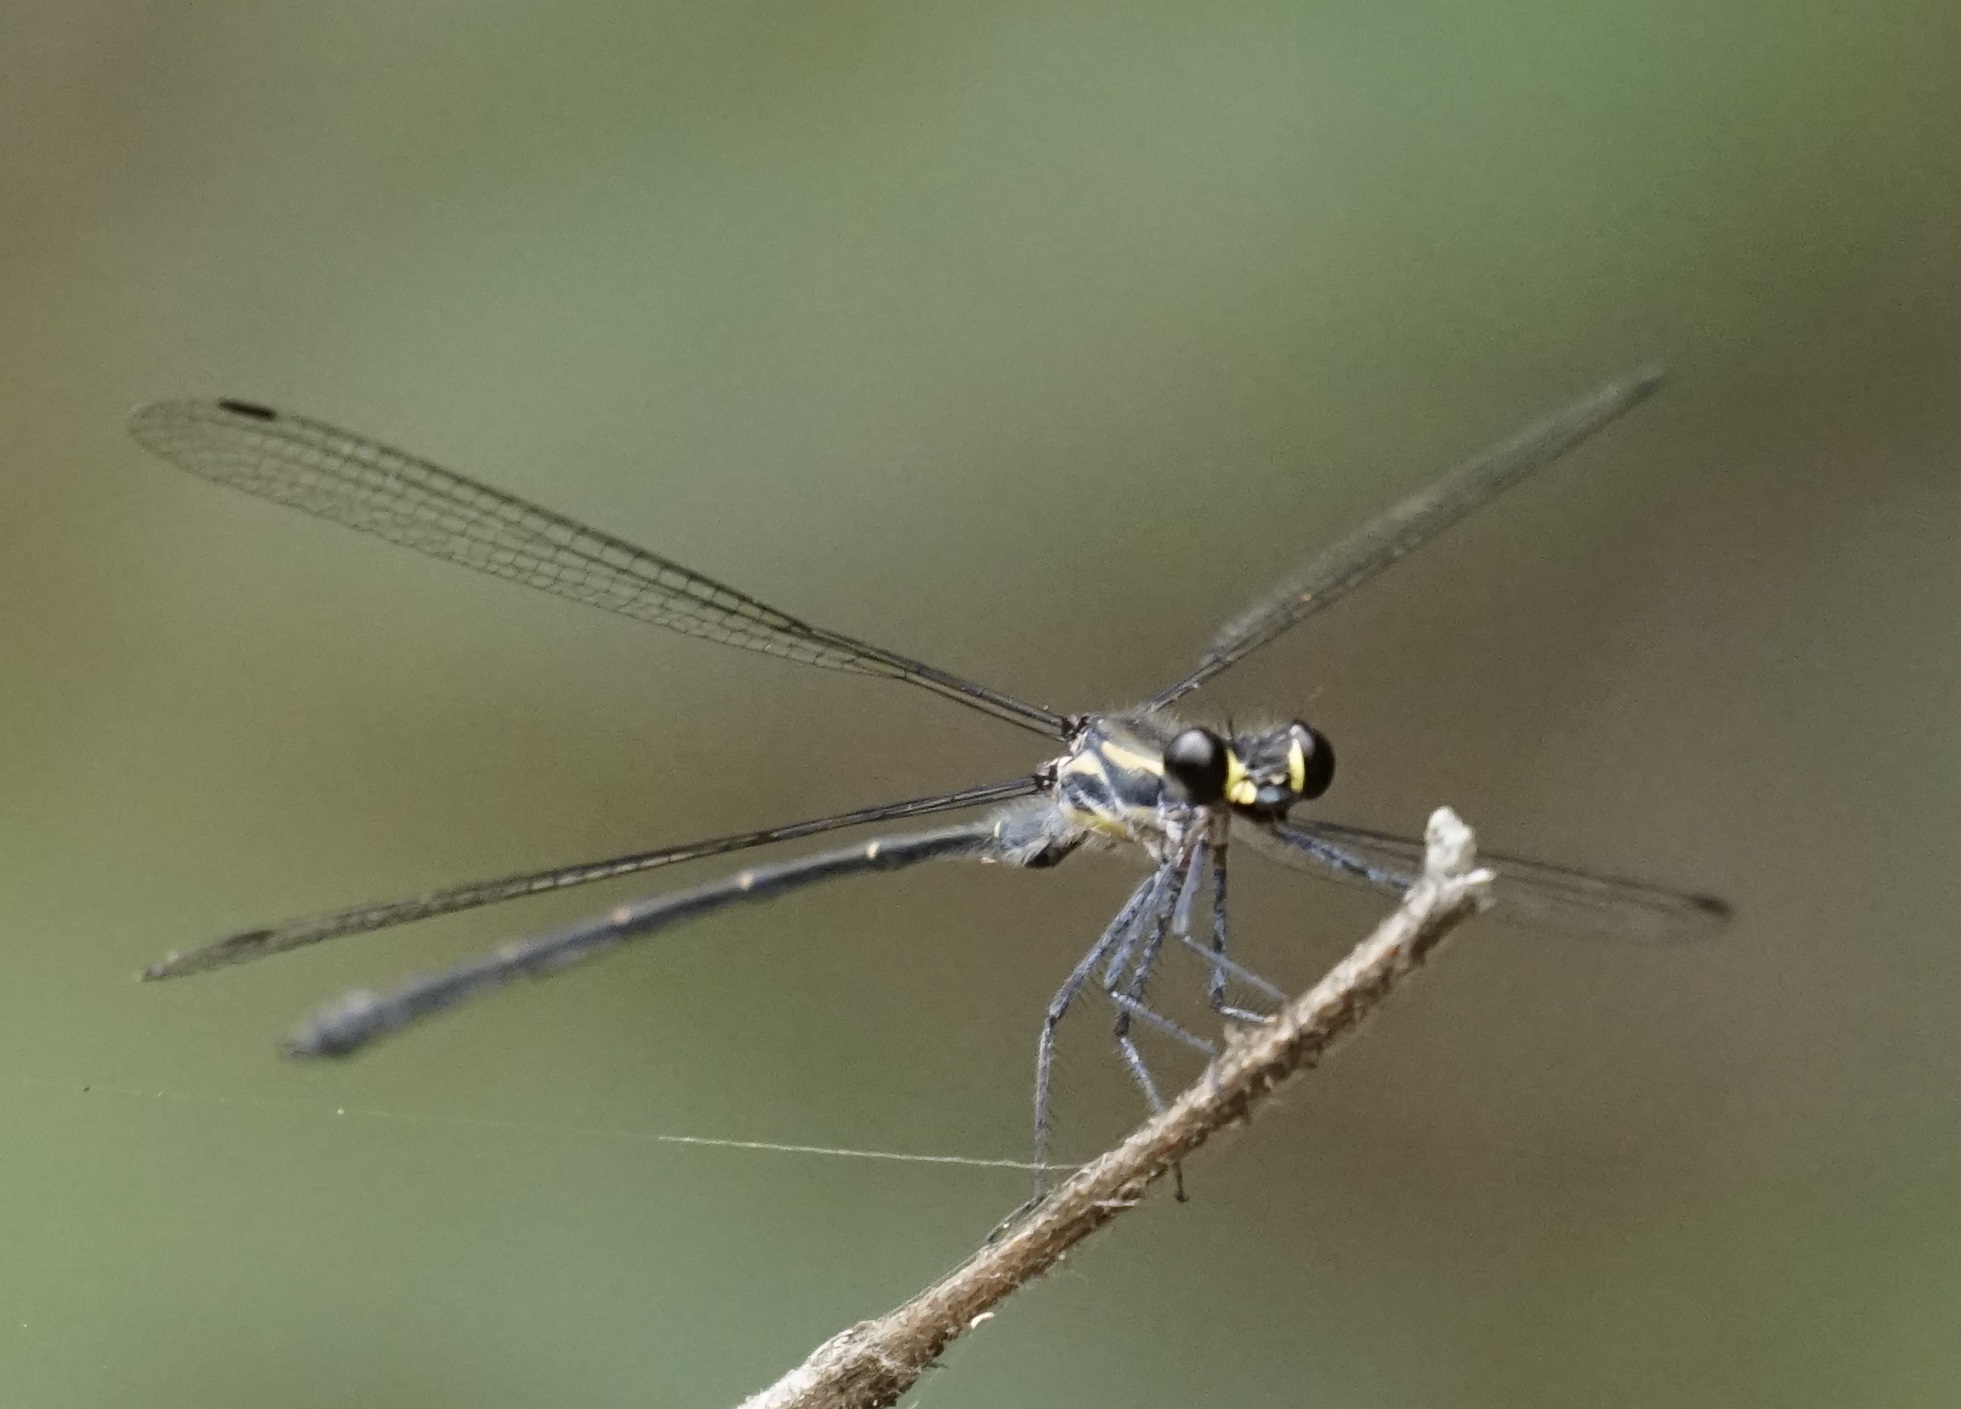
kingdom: Animalia
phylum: Arthropoda
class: Insecta
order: Odonata
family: Argiolestidae
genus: Austroargiolestes
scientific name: Austroargiolestes icteromelas
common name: Common flatwing
